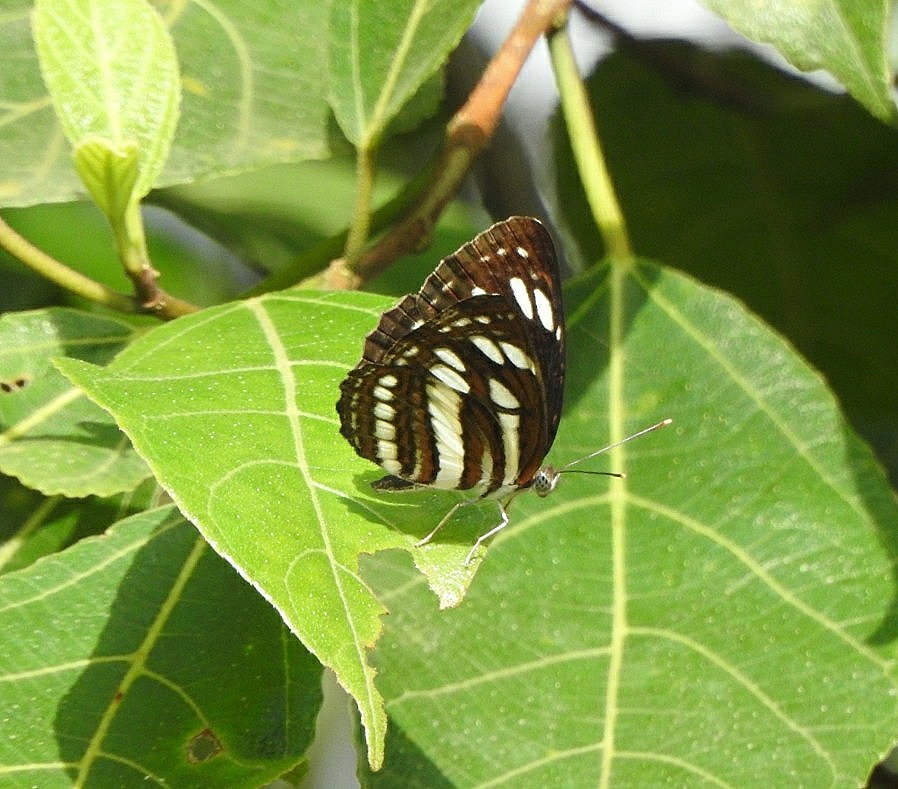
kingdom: Animalia
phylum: Arthropoda
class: Insecta
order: Lepidoptera
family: Nymphalidae
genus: Neptis
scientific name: Neptis hylas
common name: Common sailer
